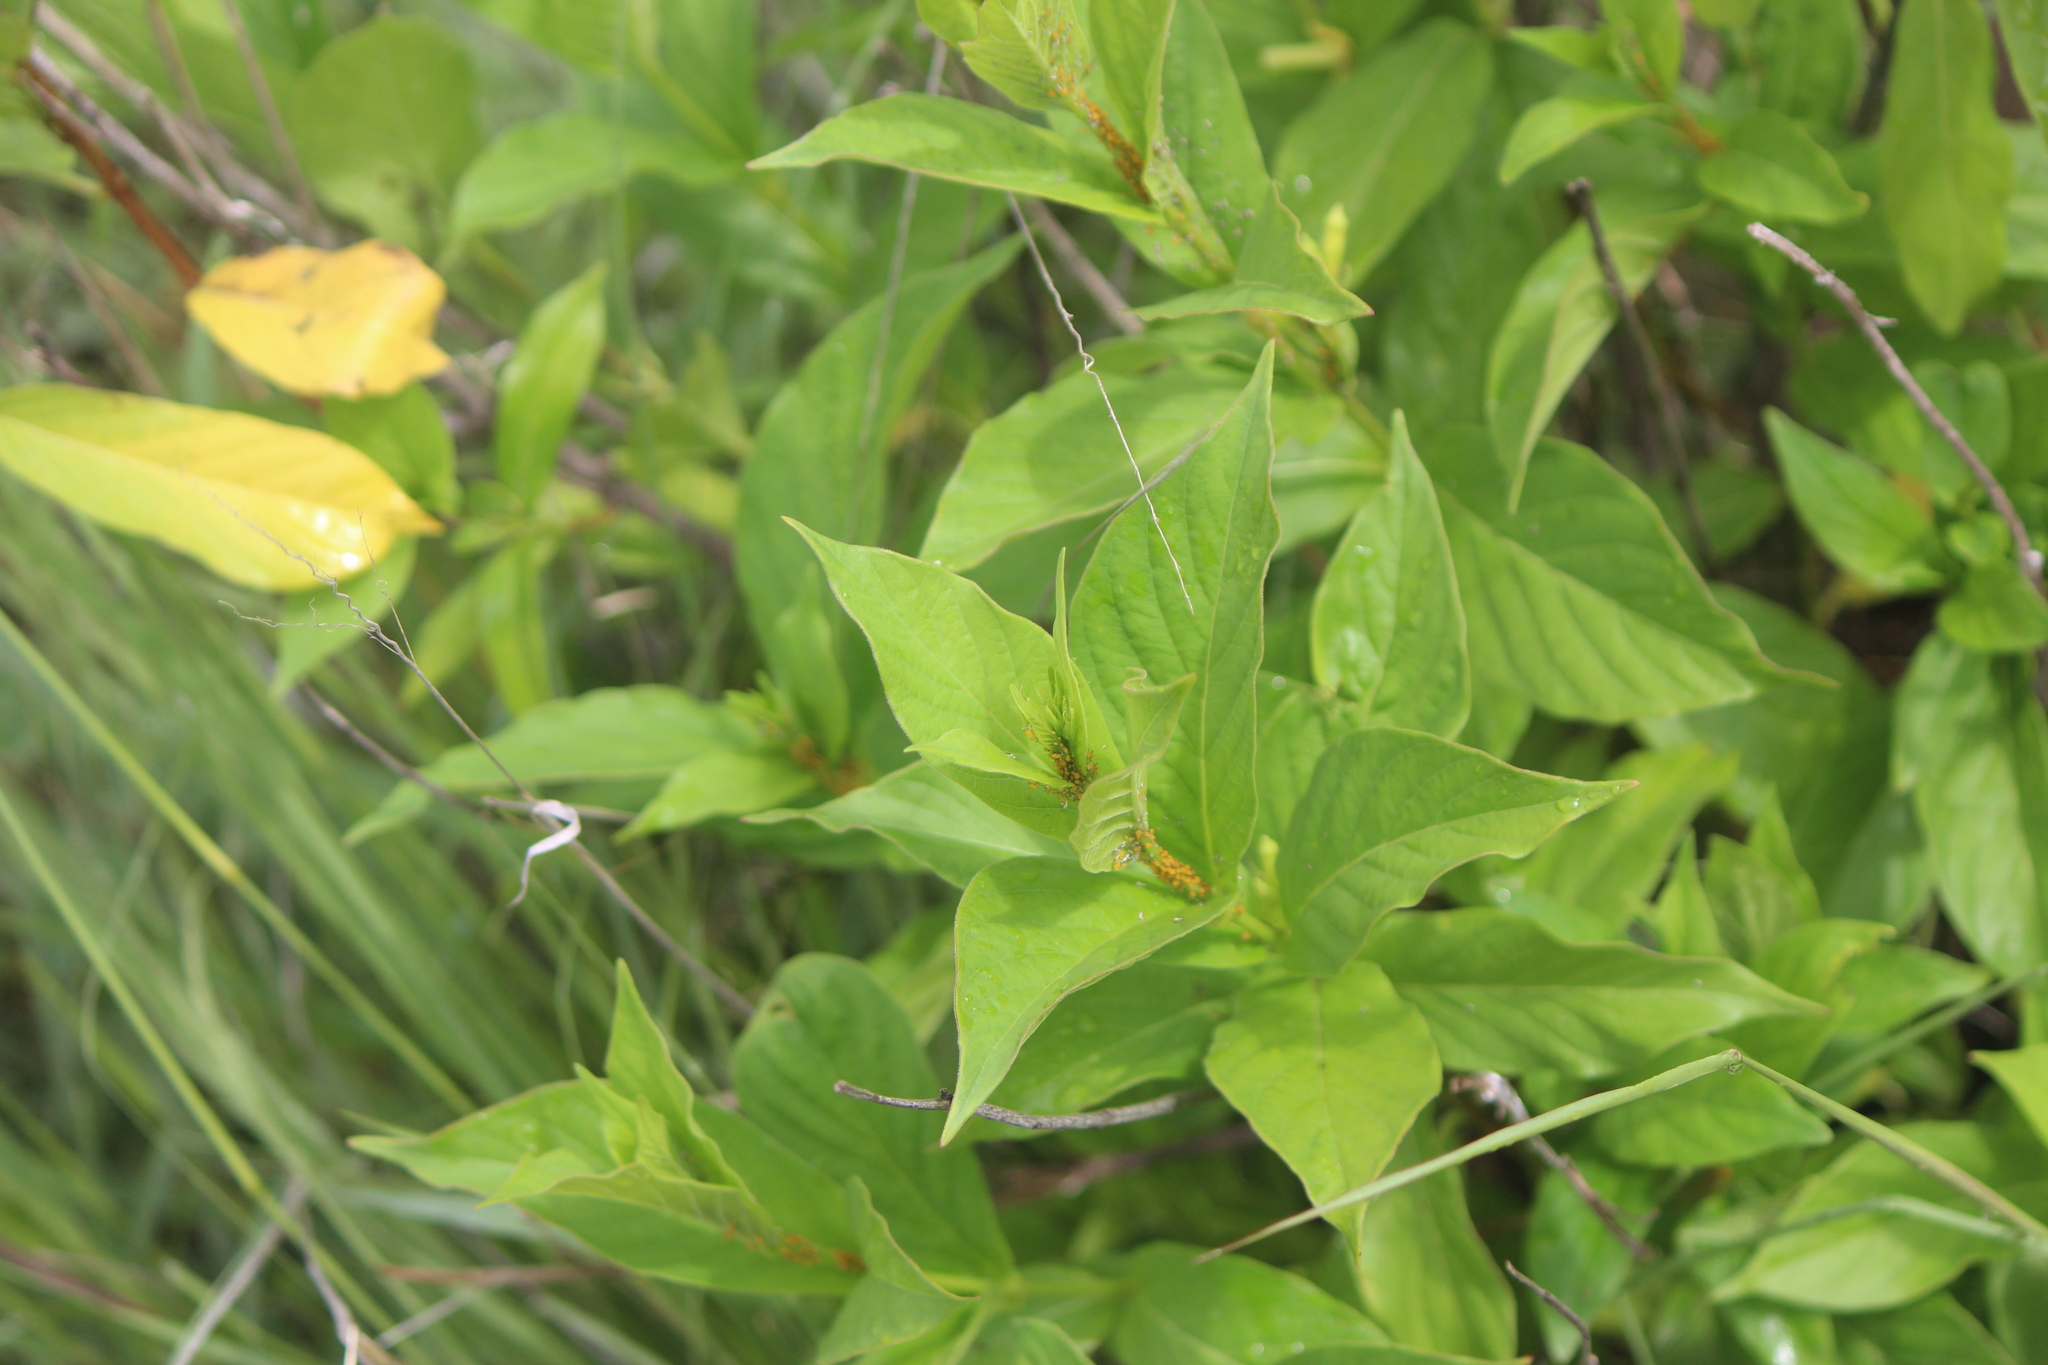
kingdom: Plantae
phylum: Tracheophyta
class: Magnoliopsida
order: Gentianales
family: Apocynaceae
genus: Mandevilla
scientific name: Mandevilla foliosa
